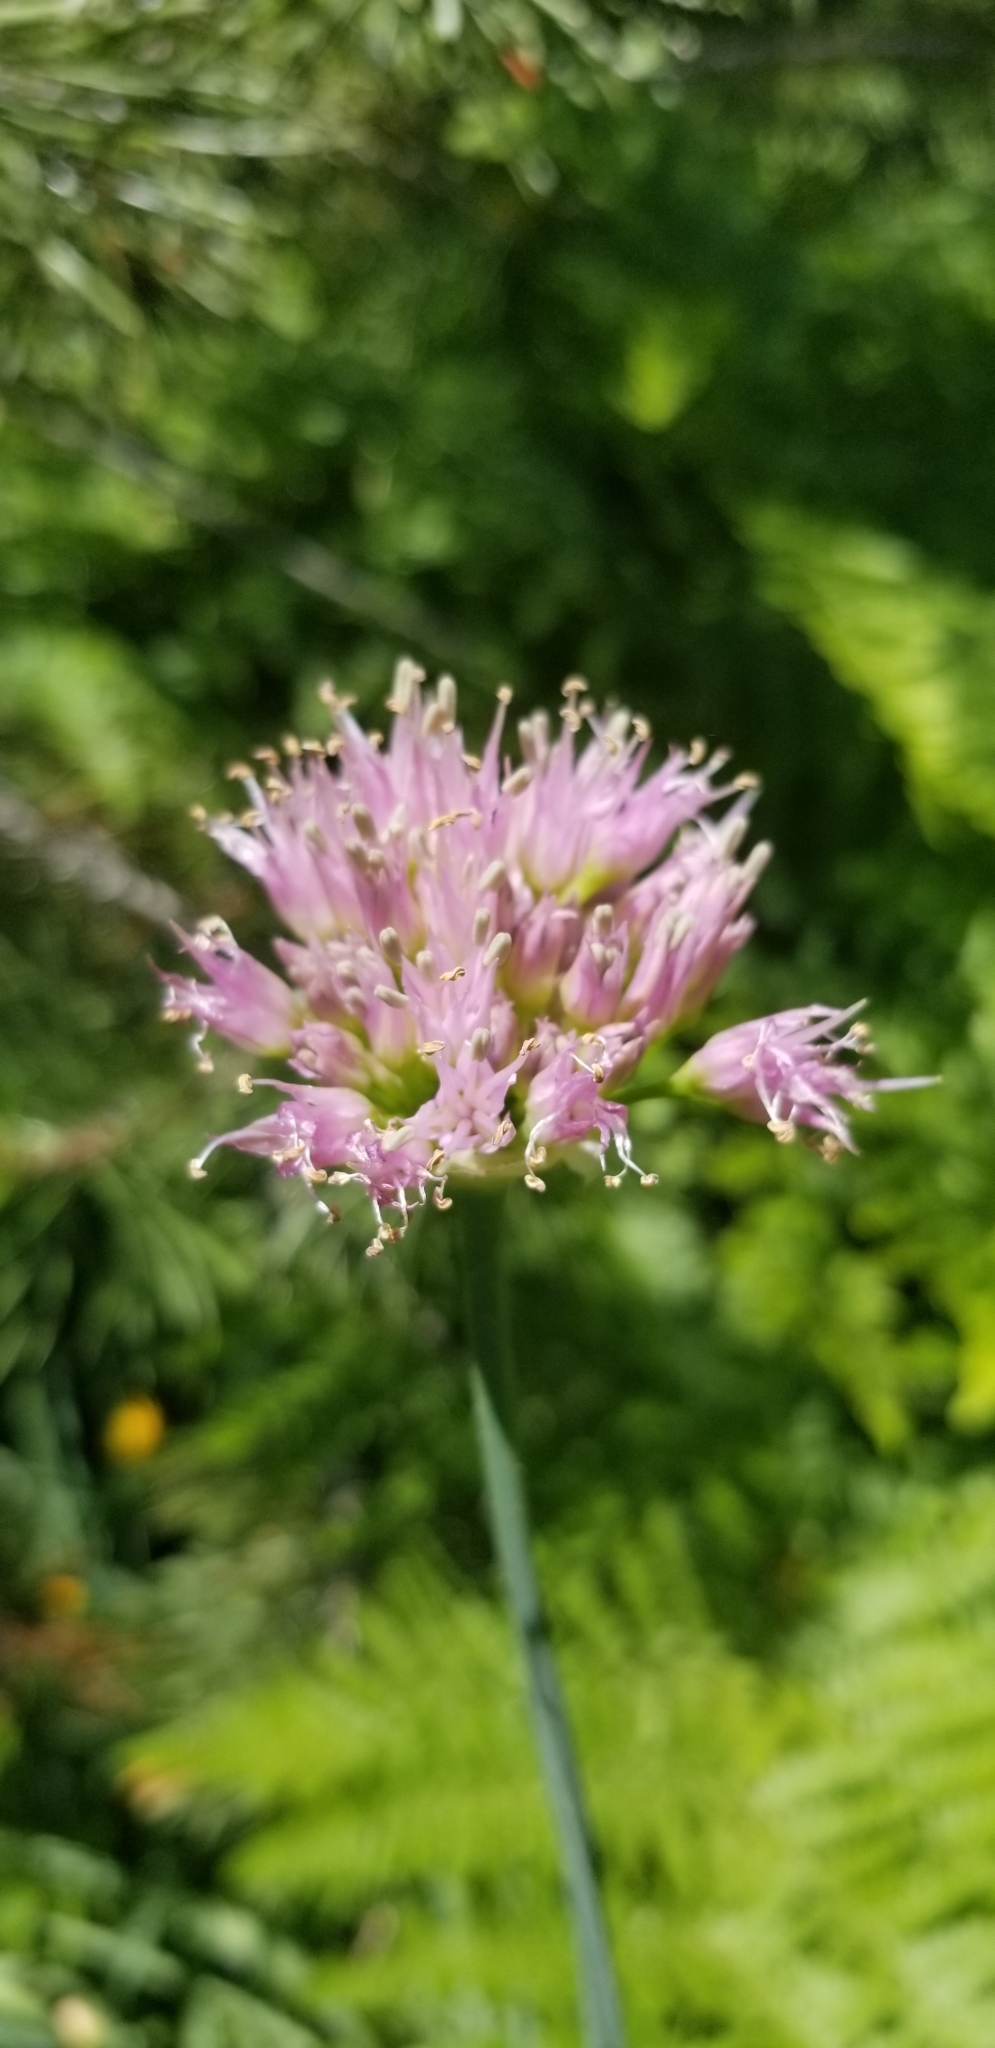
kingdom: Plantae
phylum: Tracheophyta
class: Liliopsida
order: Asparagales
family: Amaryllidaceae
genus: Allium
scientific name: Allium validum
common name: Pacific mountain onion
